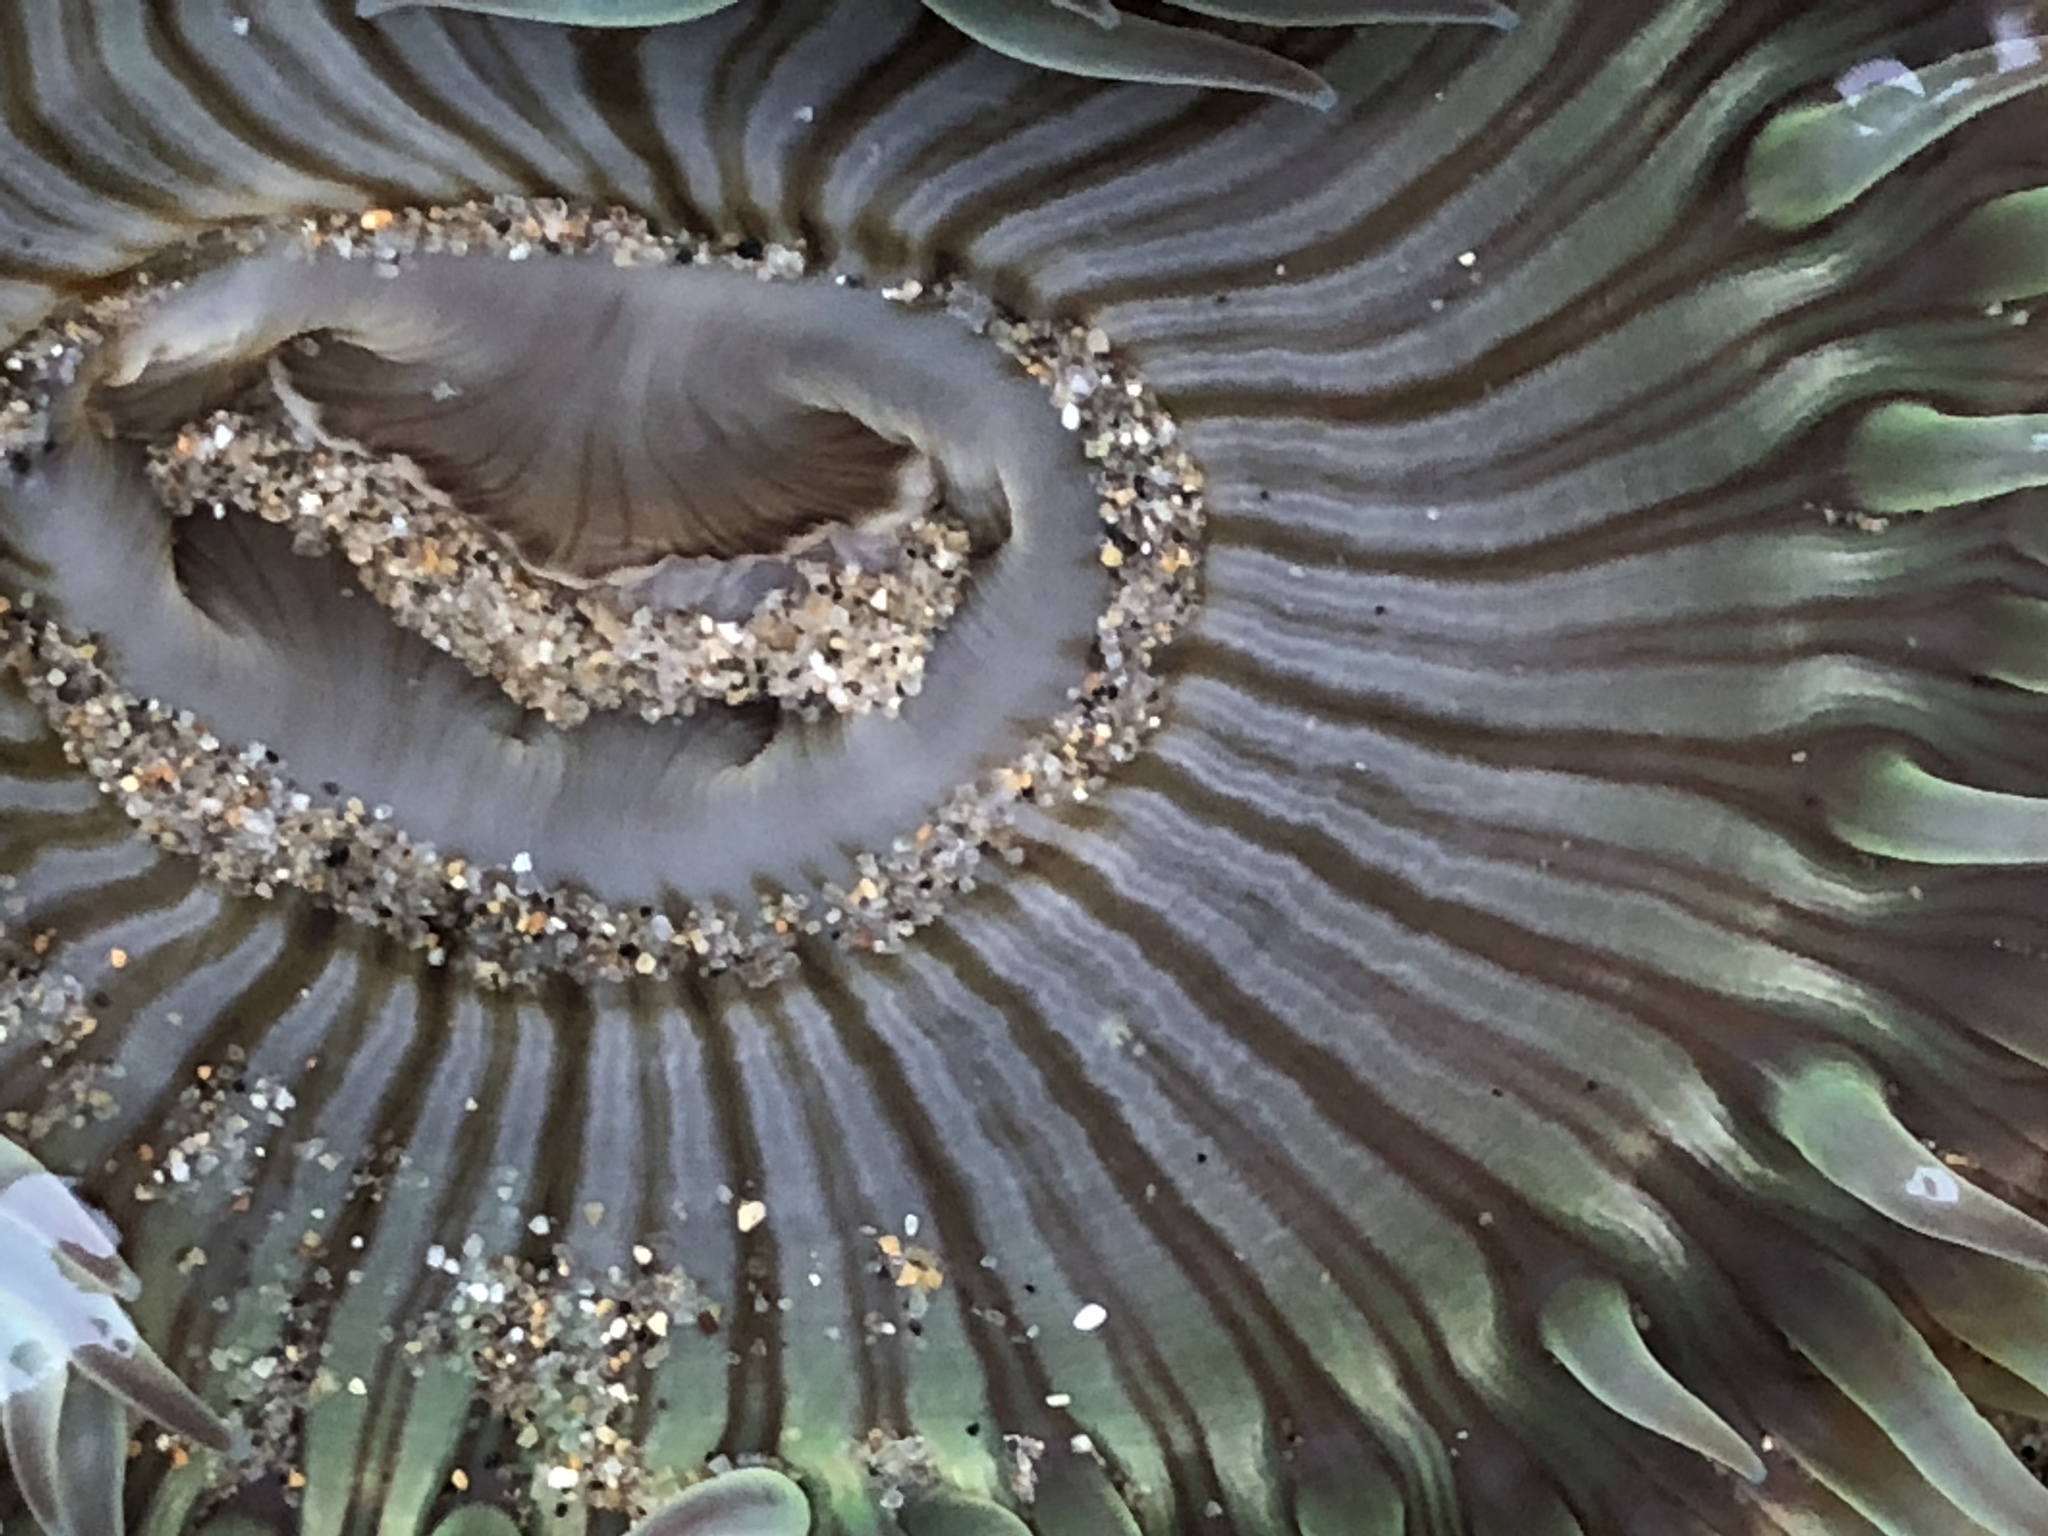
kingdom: Animalia
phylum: Cnidaria
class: Anthozoa
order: Actiniaria
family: Actiniidae
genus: Anthopleura
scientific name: Anthopleura sola
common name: Sun anemone
